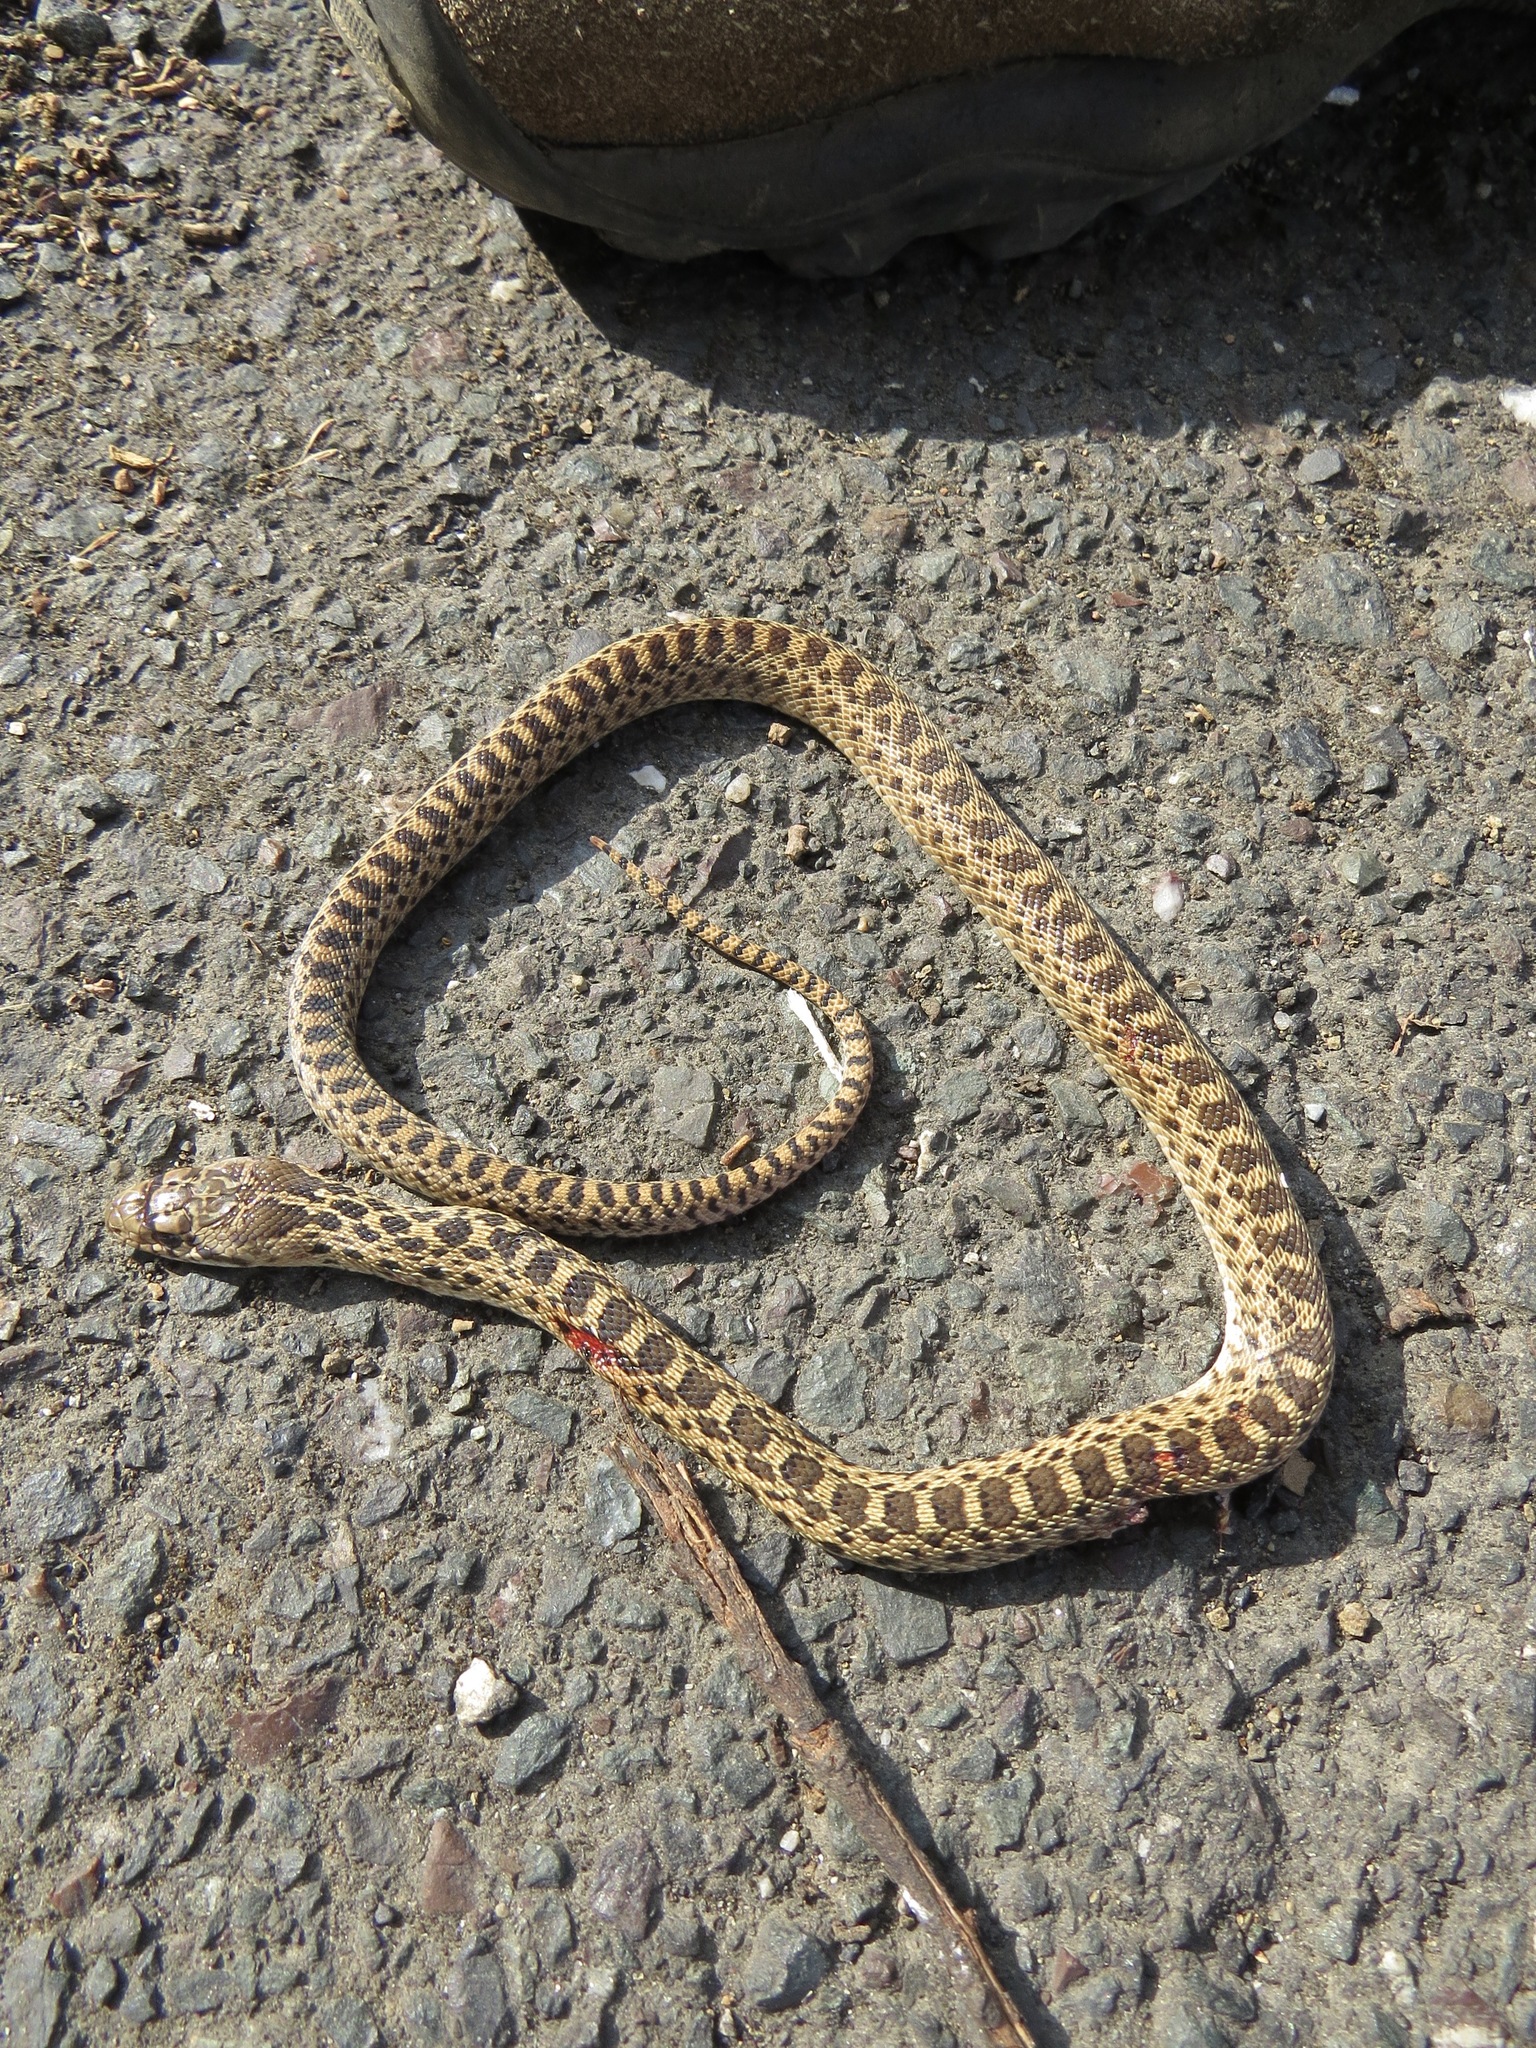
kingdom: Animalia
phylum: Chordata
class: Squamata
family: Colubridae
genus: Pituophis
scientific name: Pituophis catenifer
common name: Gopher snake
